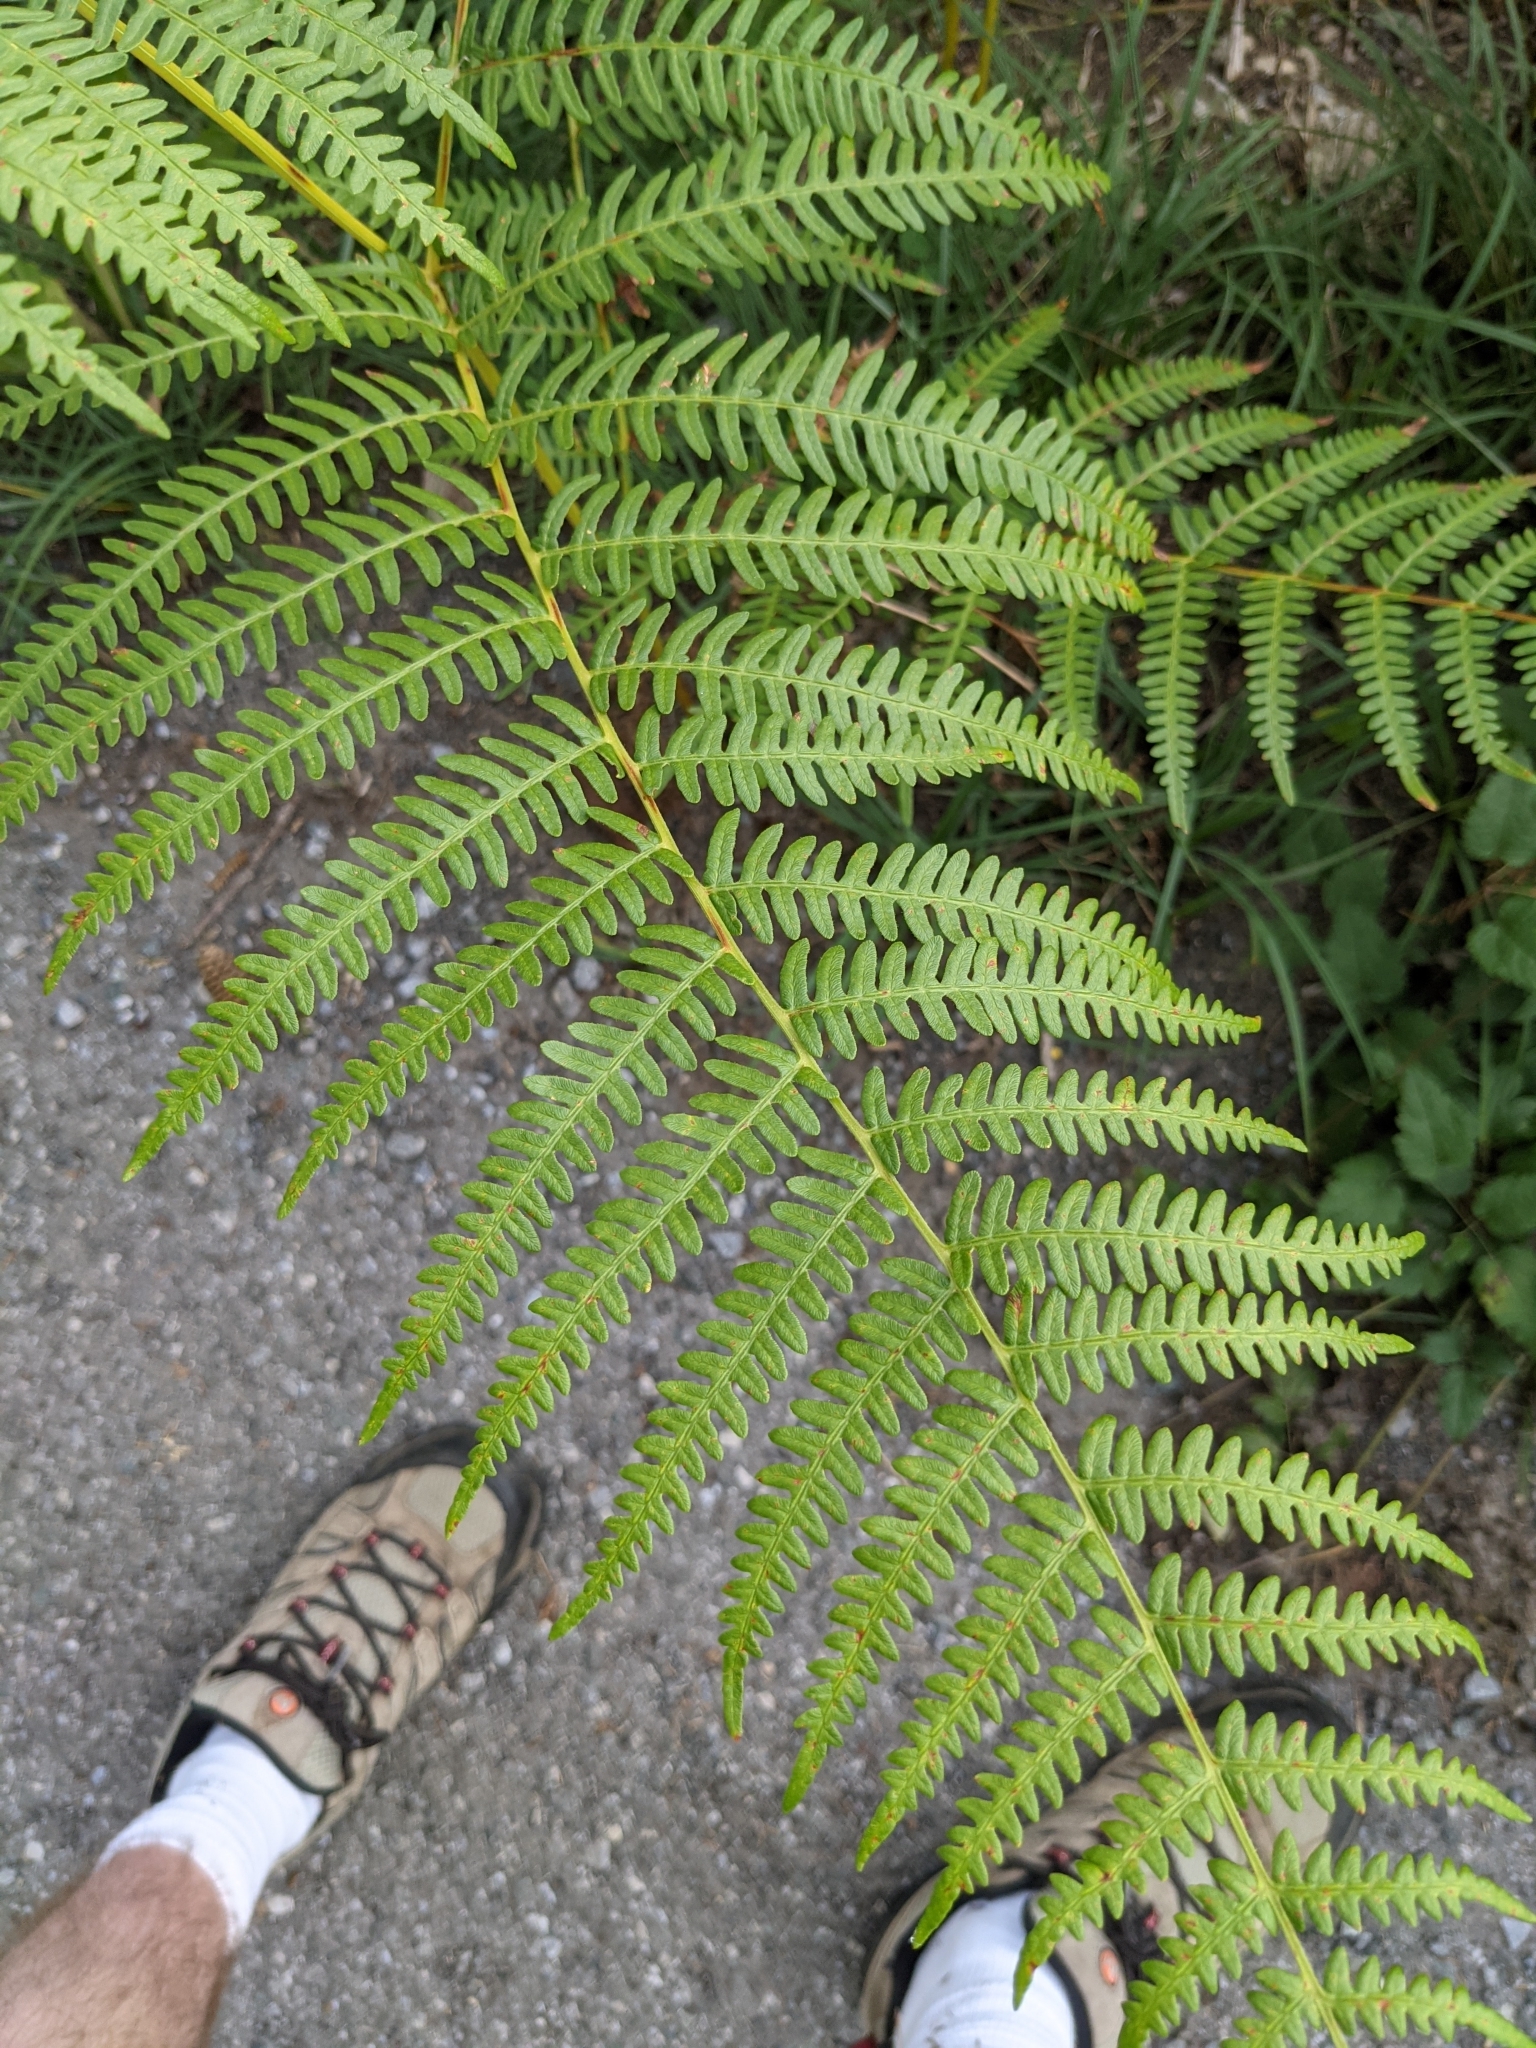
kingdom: Plantae
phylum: Tracheophyta
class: Polypodiopsida
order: Polypodiales
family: Dennstaedtiaceae
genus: Pteridium
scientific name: Pteridium aquilinum
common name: Bracken
